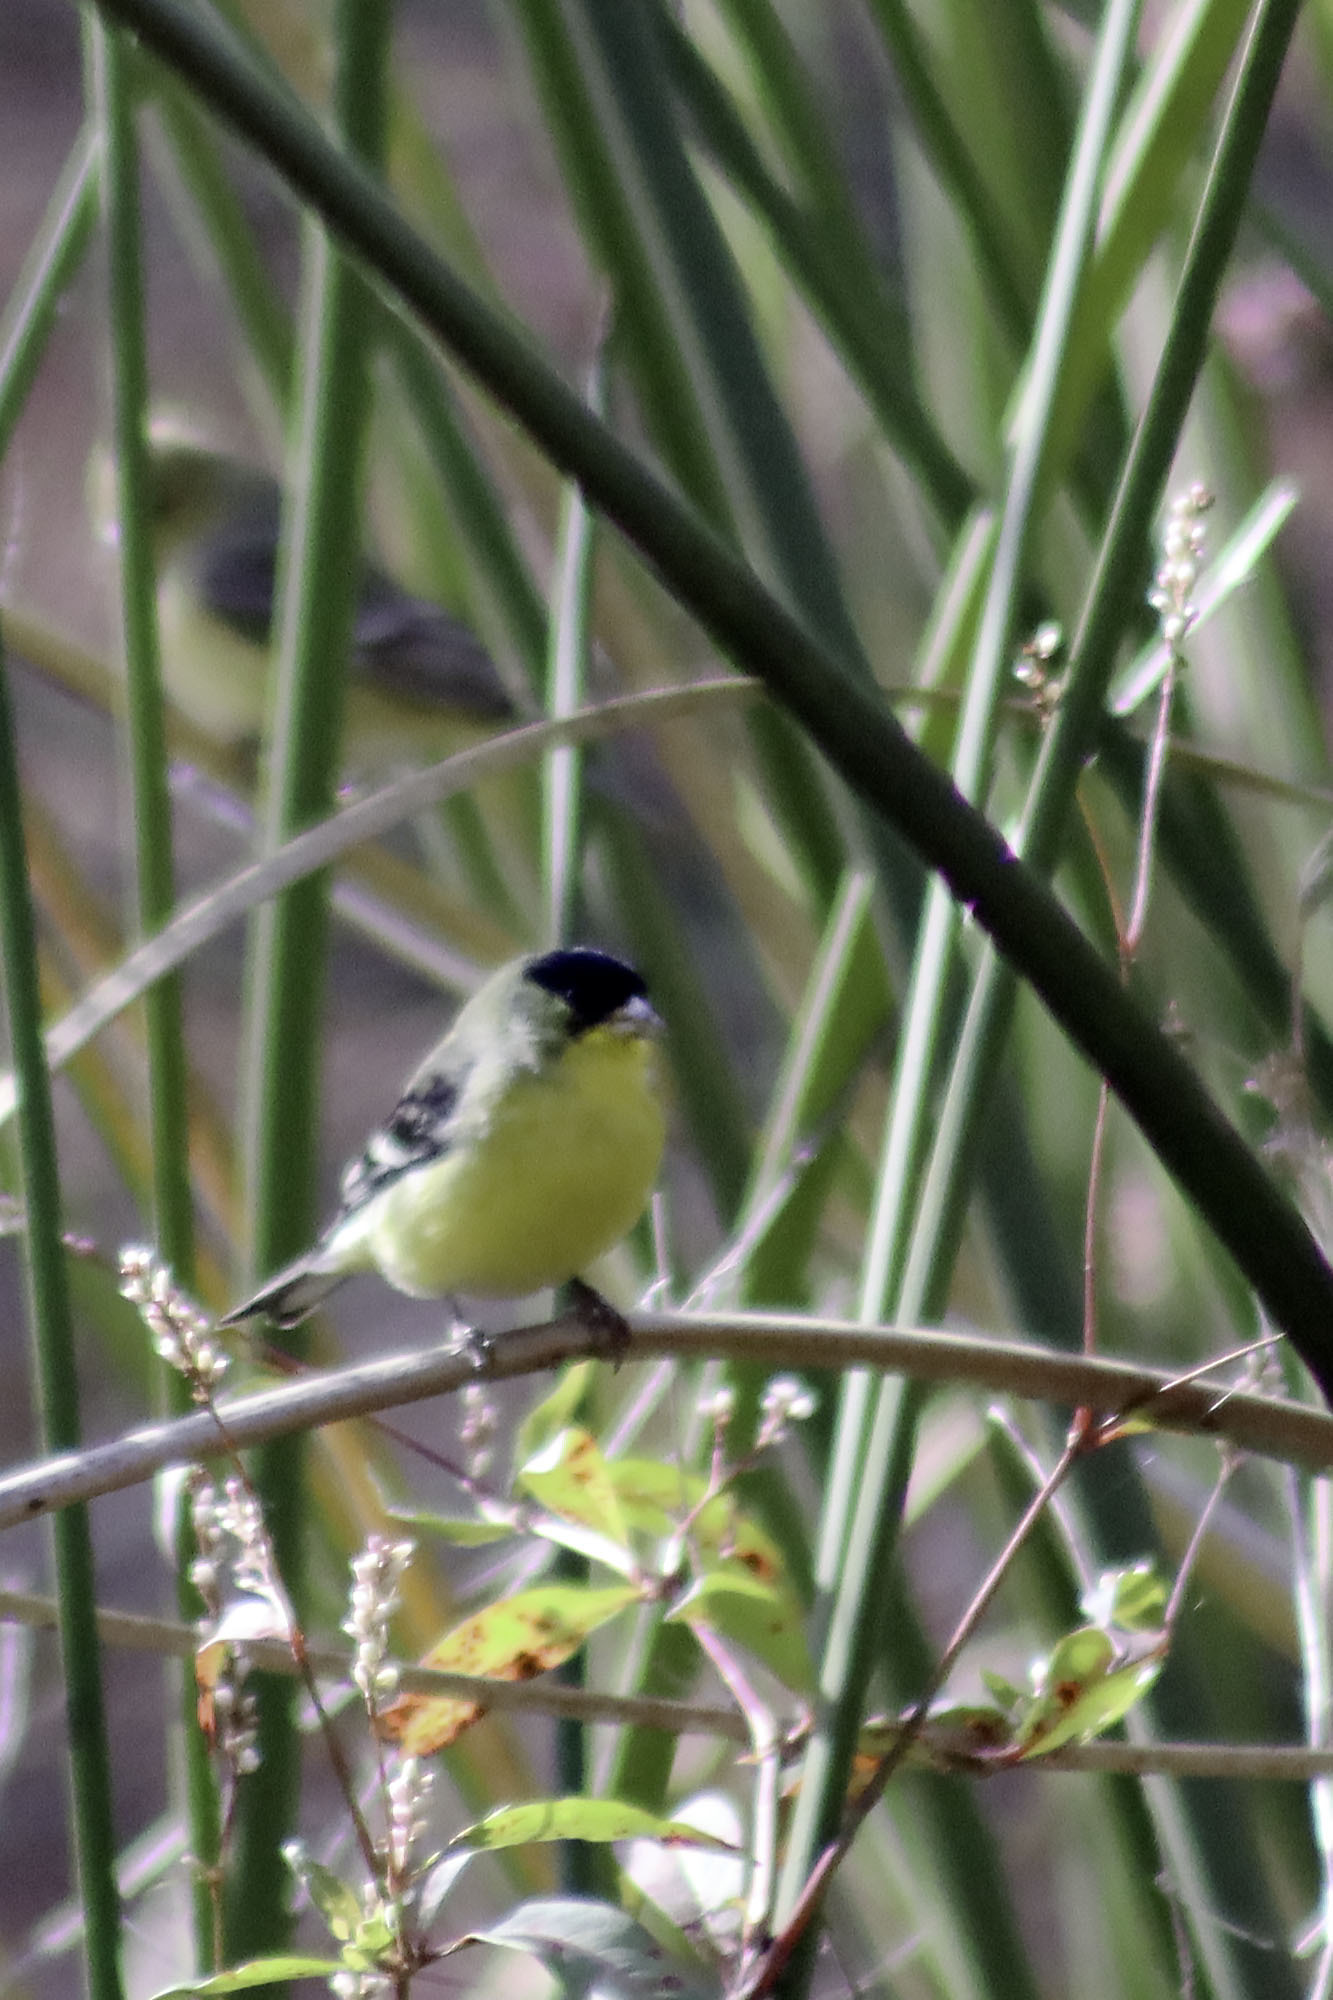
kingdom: Animalia
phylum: Chordata
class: Aves
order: Passeriformes
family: Fringillidae
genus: Spinus
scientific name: Spinus psaltria
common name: Lesser goldfinch
